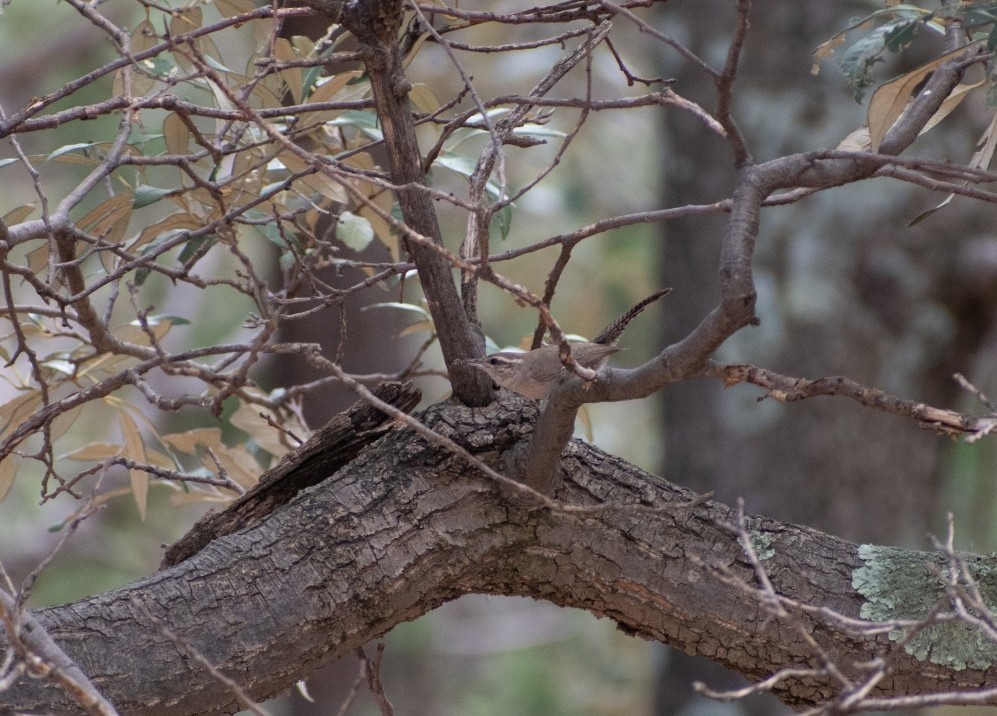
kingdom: Animalia
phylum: Chordata
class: Aves
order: Passeriformes
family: Troglodytidae
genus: Thryomanes
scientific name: Thryomanes bewickii
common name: Bewick's wren
